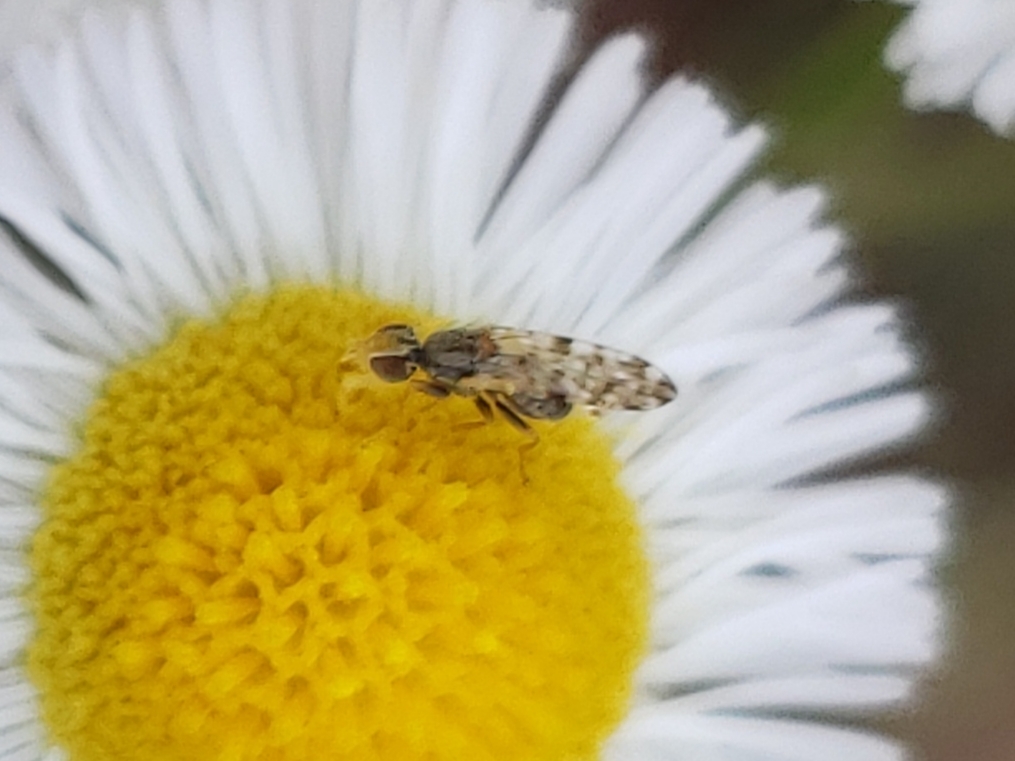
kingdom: Animalia
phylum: Arthropoda
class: Insecta
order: Diptera
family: Tephritidae
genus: Dioxyna
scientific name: Dioxyna picciola
